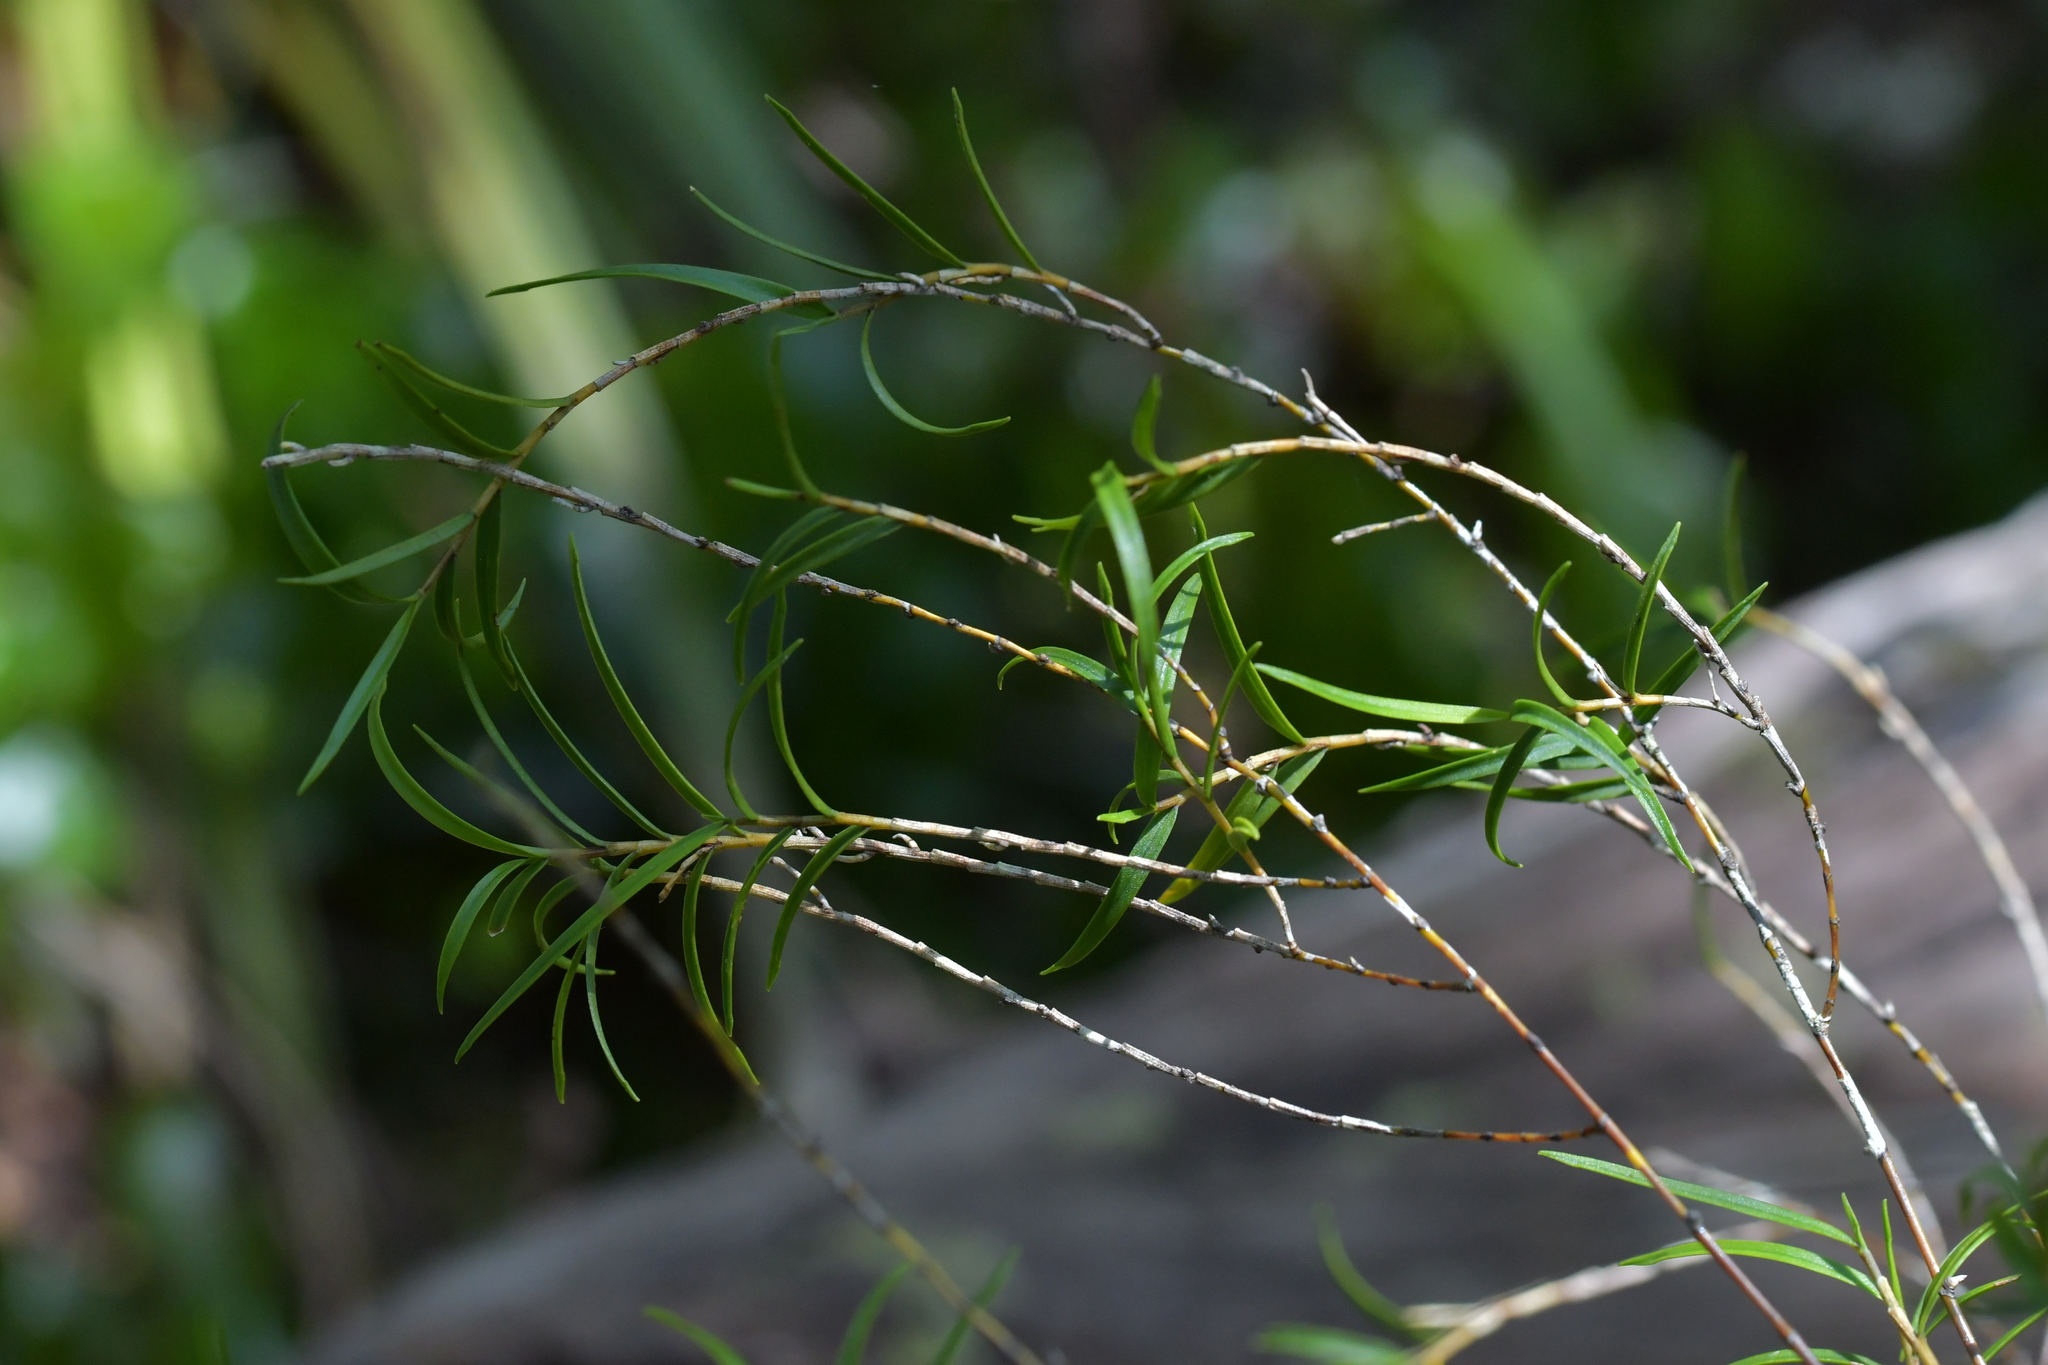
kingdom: Plantae
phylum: Tracheophyta
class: Liliopsida
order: Asparagales
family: Orchidaceae
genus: Dendrobium
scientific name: Dendrobium cunninghamii
